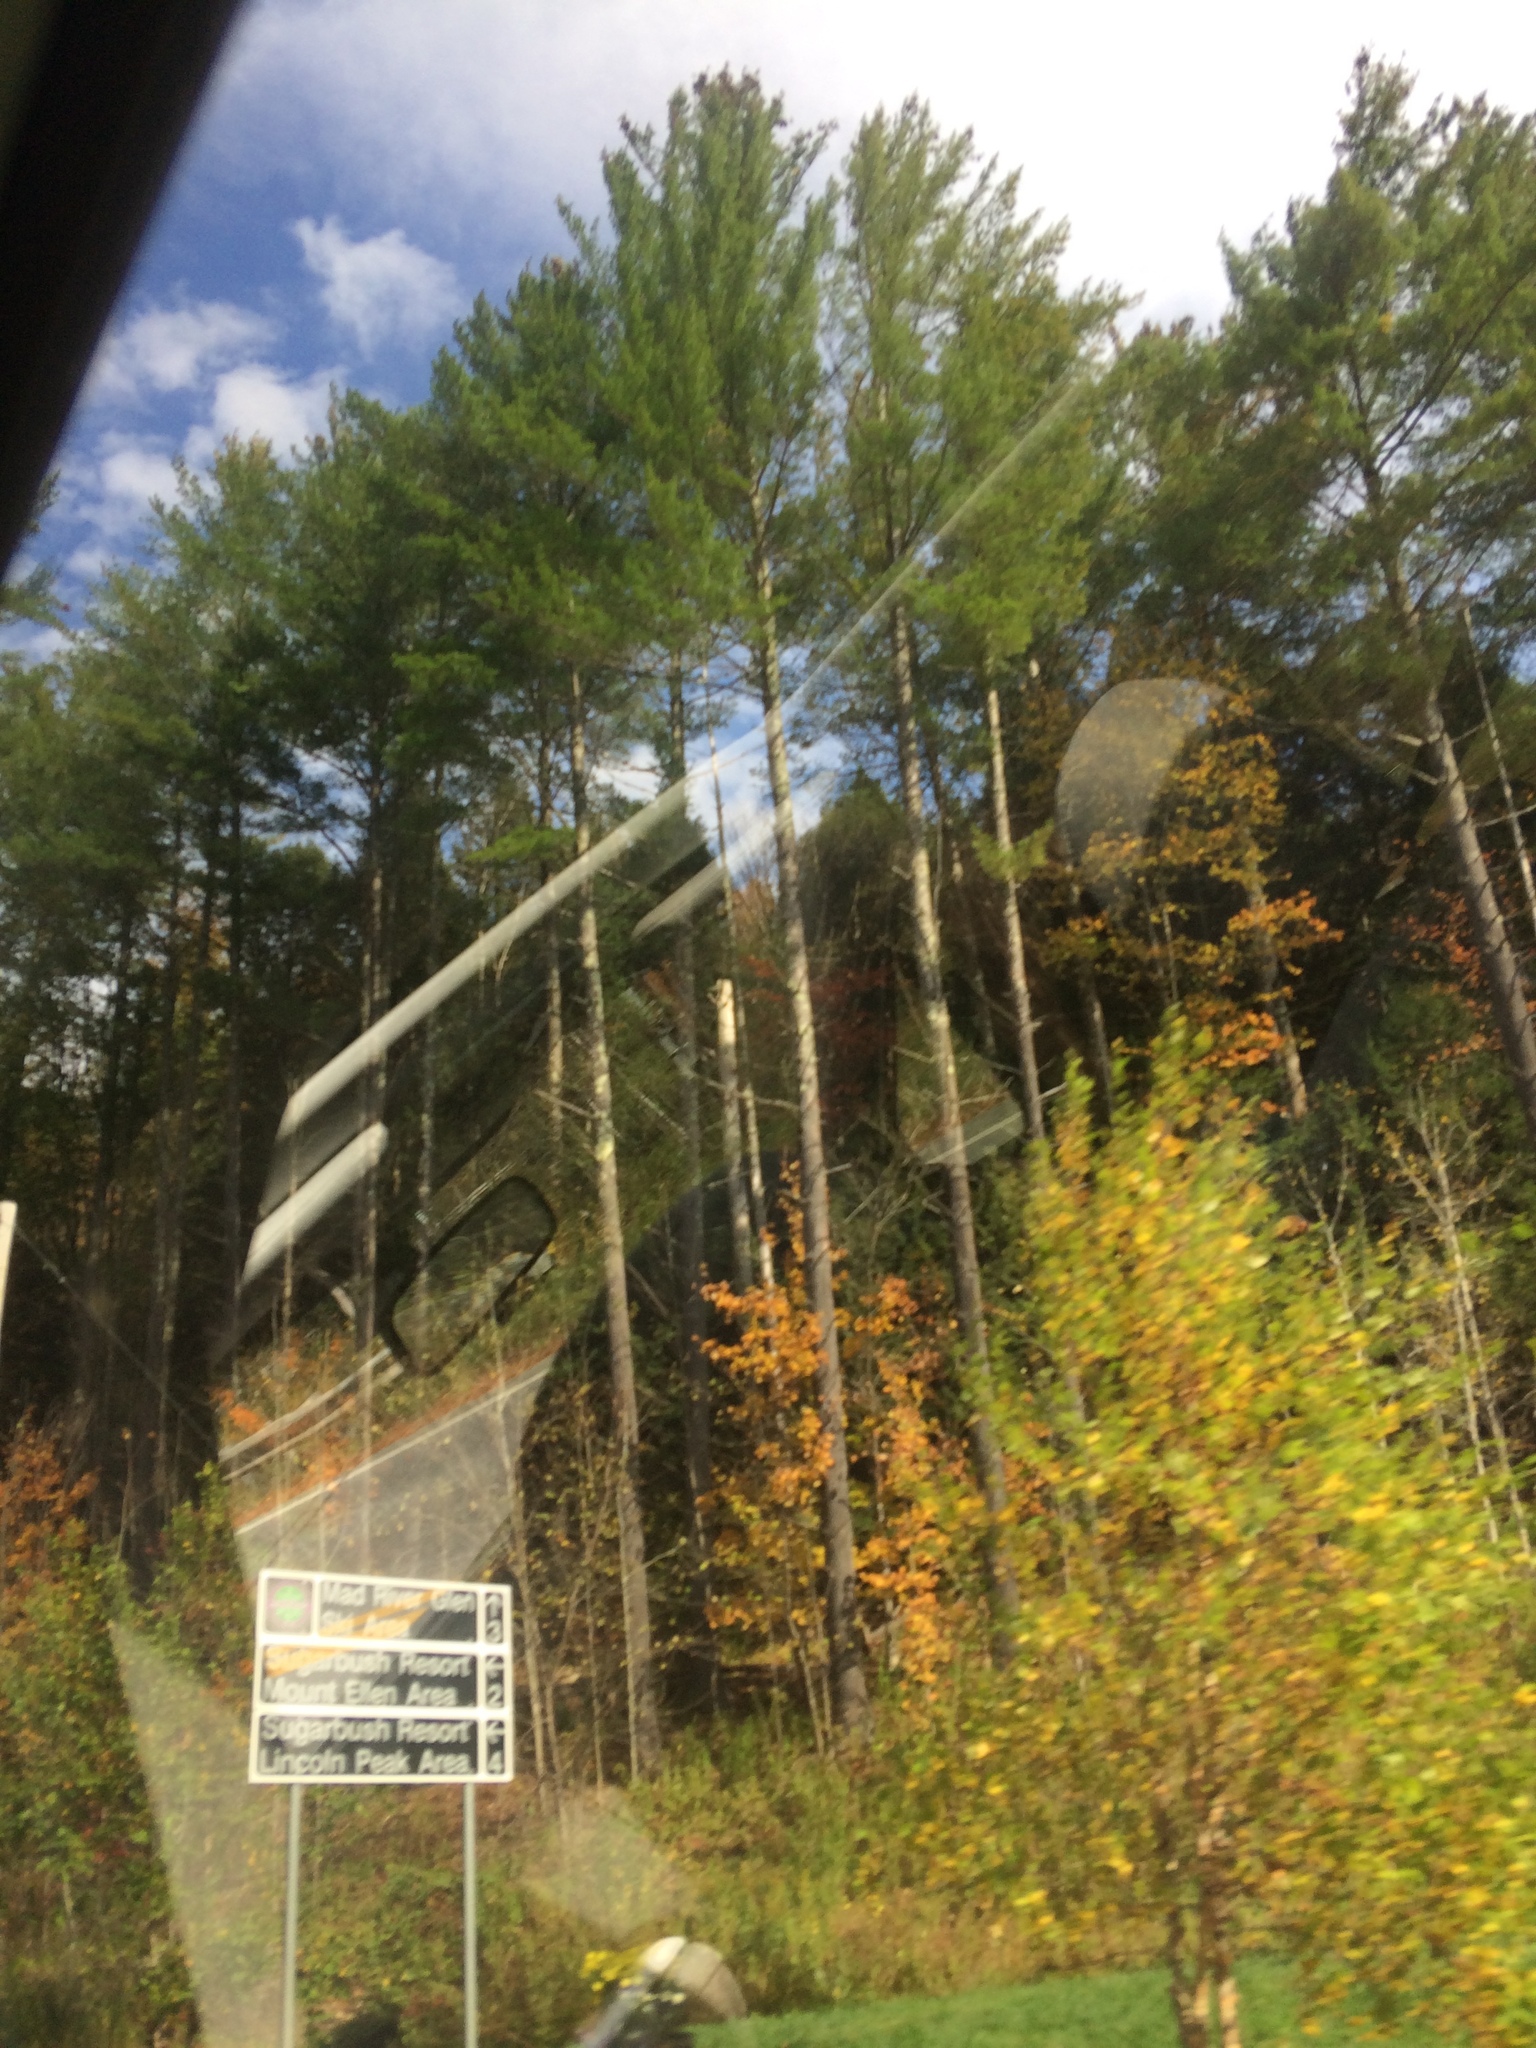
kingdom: Plantae
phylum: Tracheophyta
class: Pinopsida
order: Pinales
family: Pinaceae
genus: Pinus
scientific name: Pinus strobus
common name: Weymouth pine
